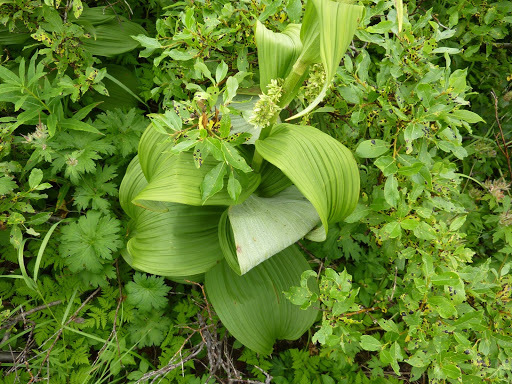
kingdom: Plantae
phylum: Tracheophyta
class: Liliopsida
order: Liliales
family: Melanthiaceae
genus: Veratrum
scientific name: Veratrum viride
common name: American false hellebore
